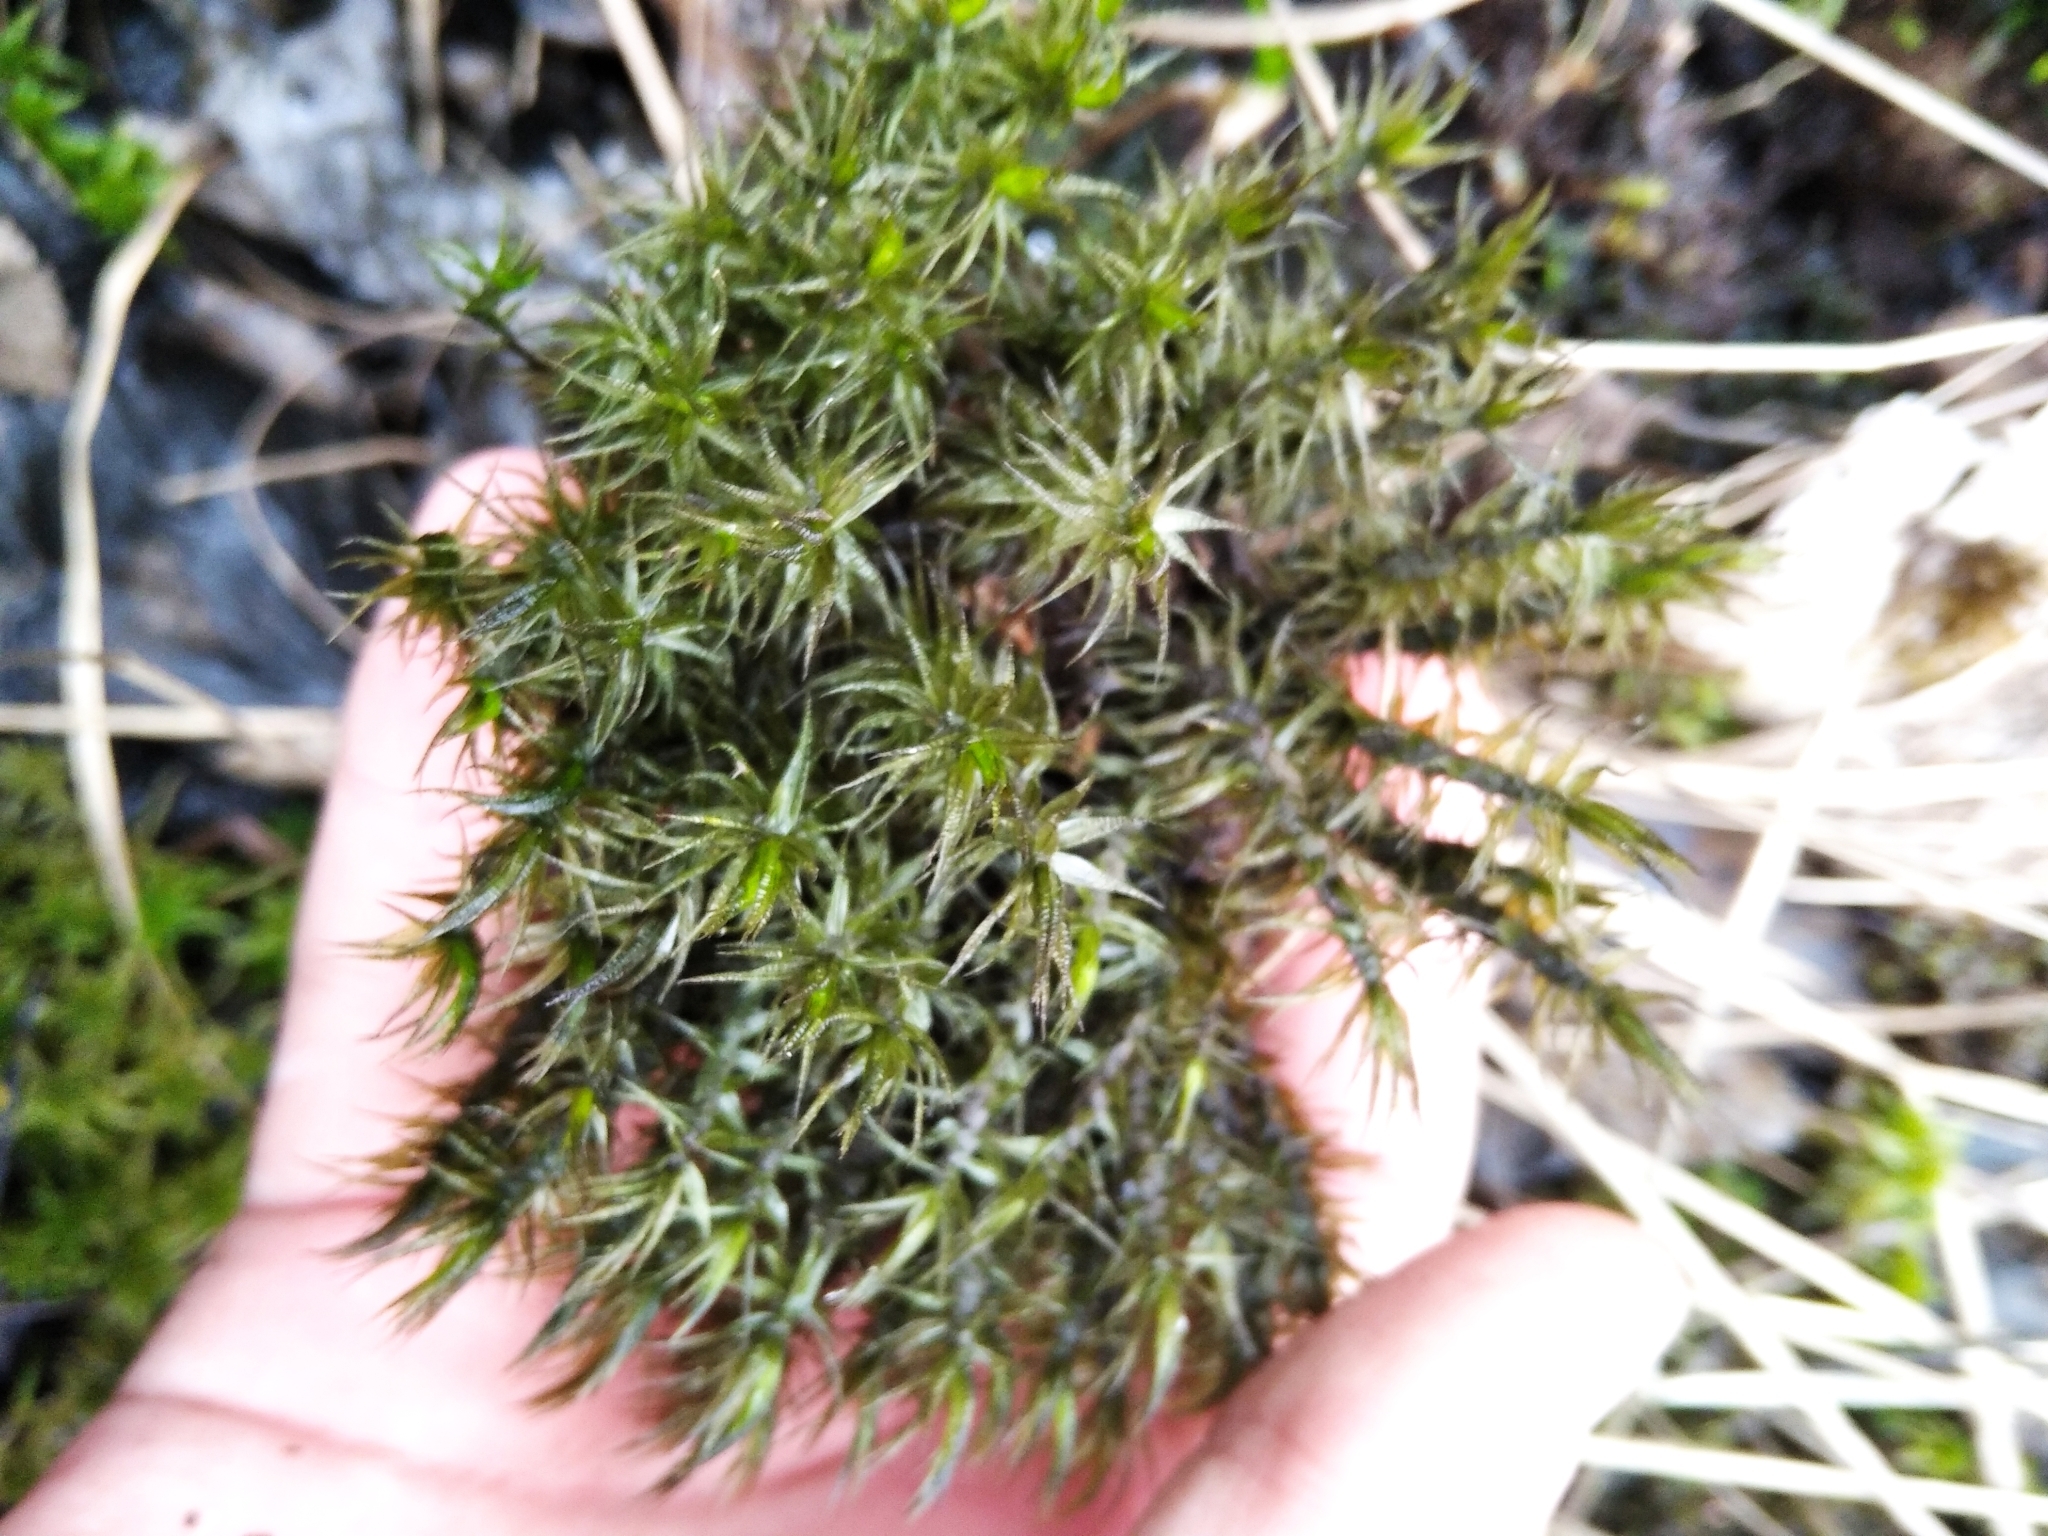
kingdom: Plantae
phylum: Bryophyta
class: Bryopsida
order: Dicranales
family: Dicranaceae
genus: Dicranum
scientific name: Dicranum polysetum
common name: Rugose fork-moss
